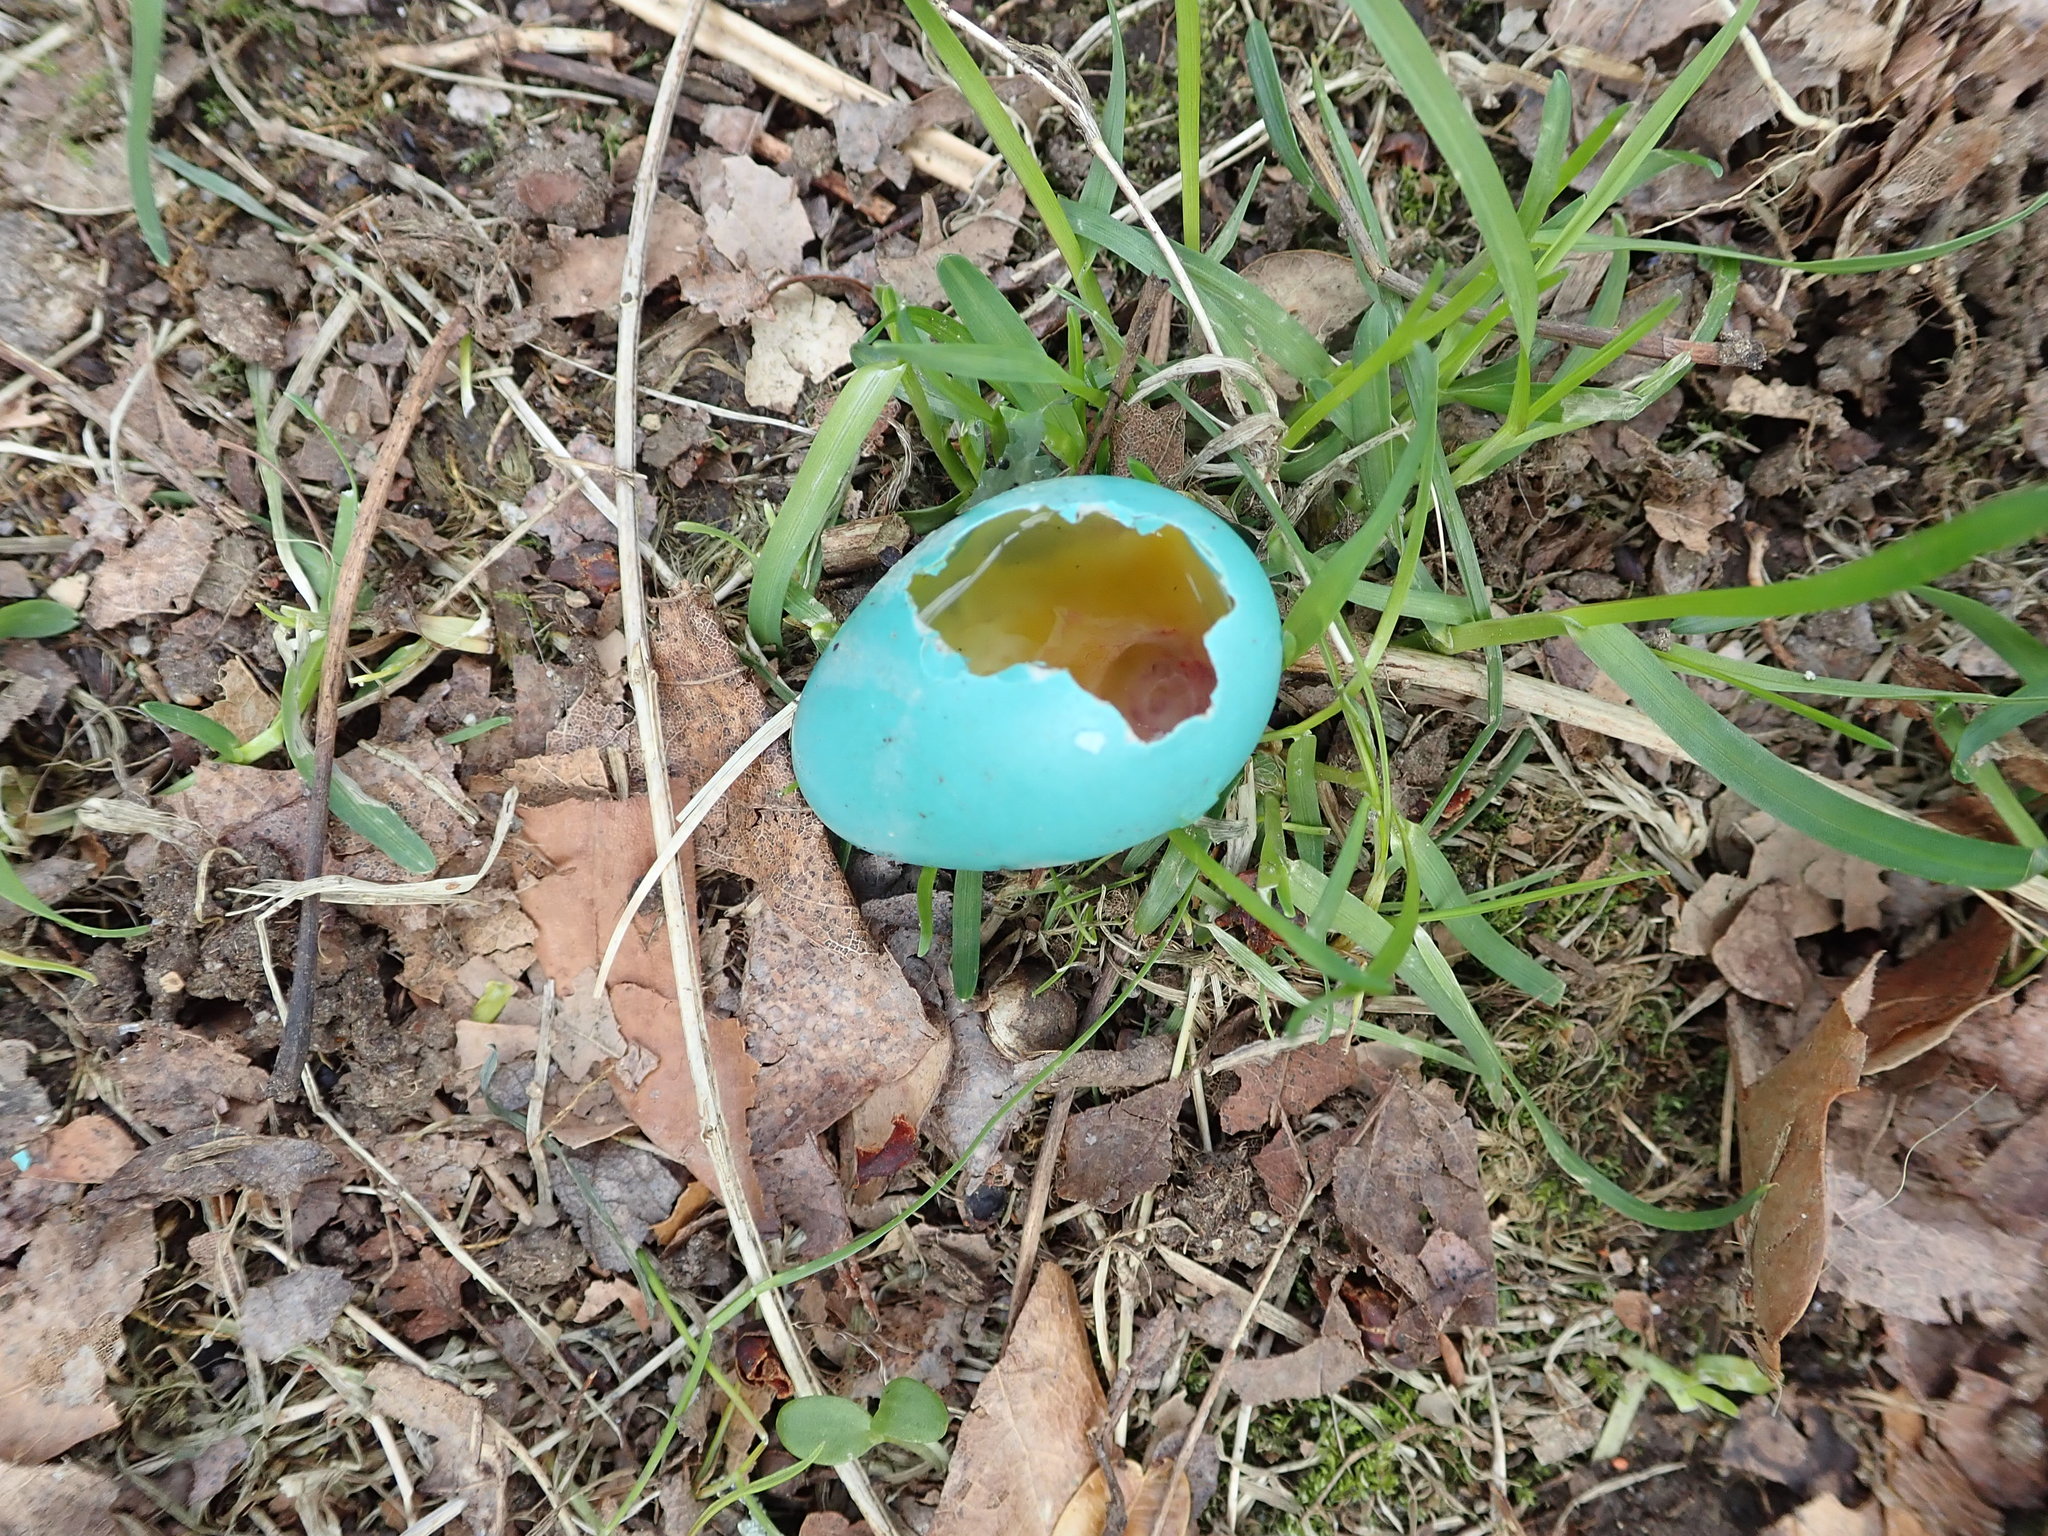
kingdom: Animalia
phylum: Chordata
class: Aves
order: Passeriformes
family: Turdidae
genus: Turdus
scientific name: Turdus migratorius
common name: American robin
